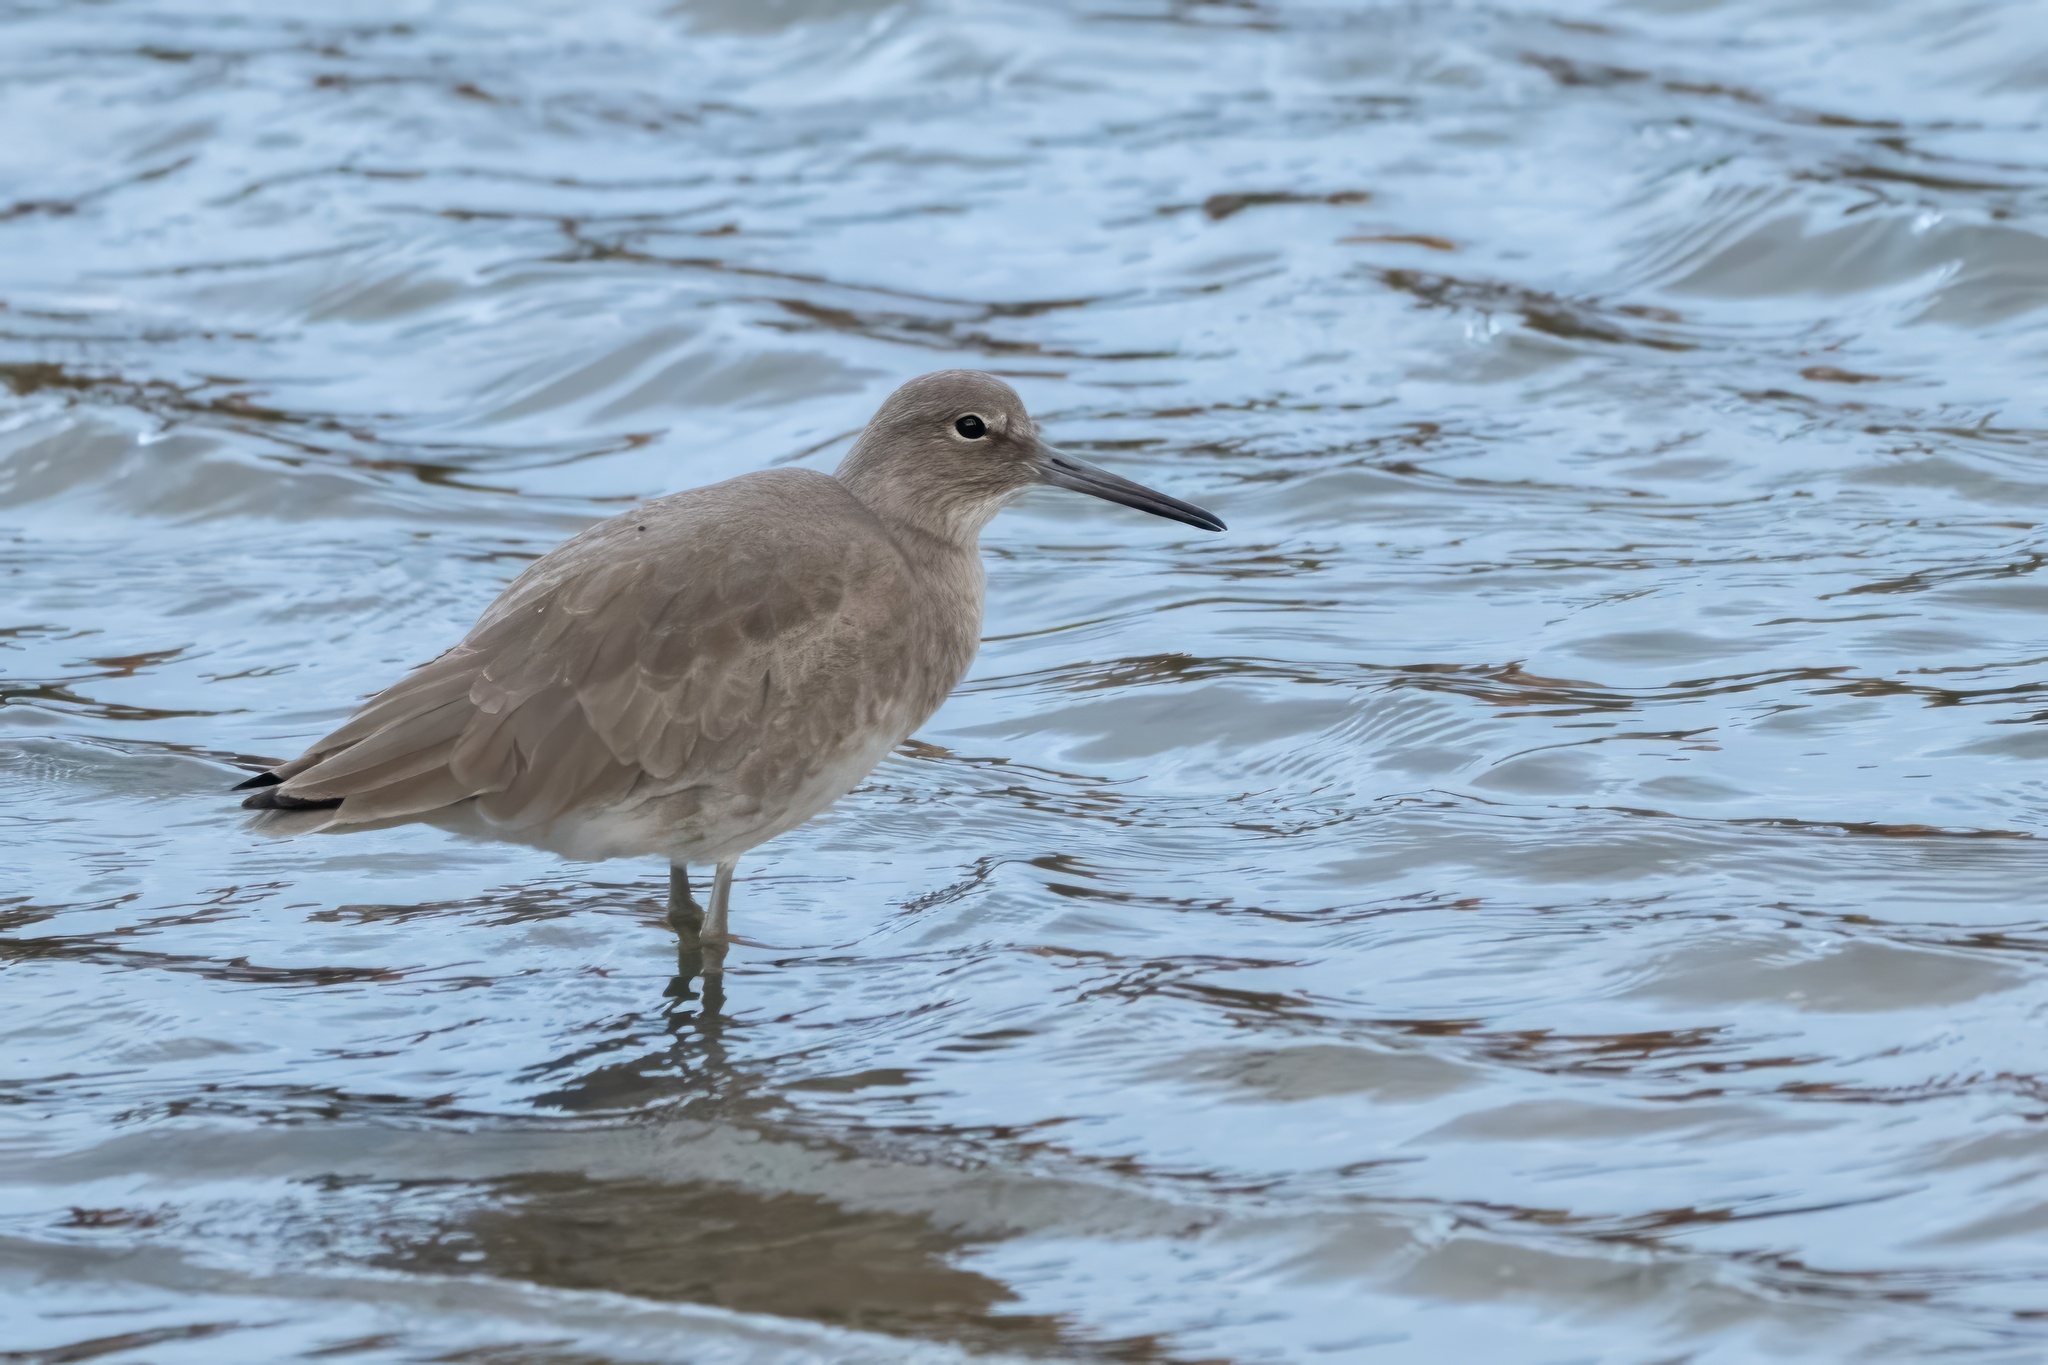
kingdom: Animalia
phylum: Chordata
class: Aves
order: Charadriiformes
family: Scolopacidae
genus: Tringa
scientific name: Tringa semipalmata
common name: Willet
